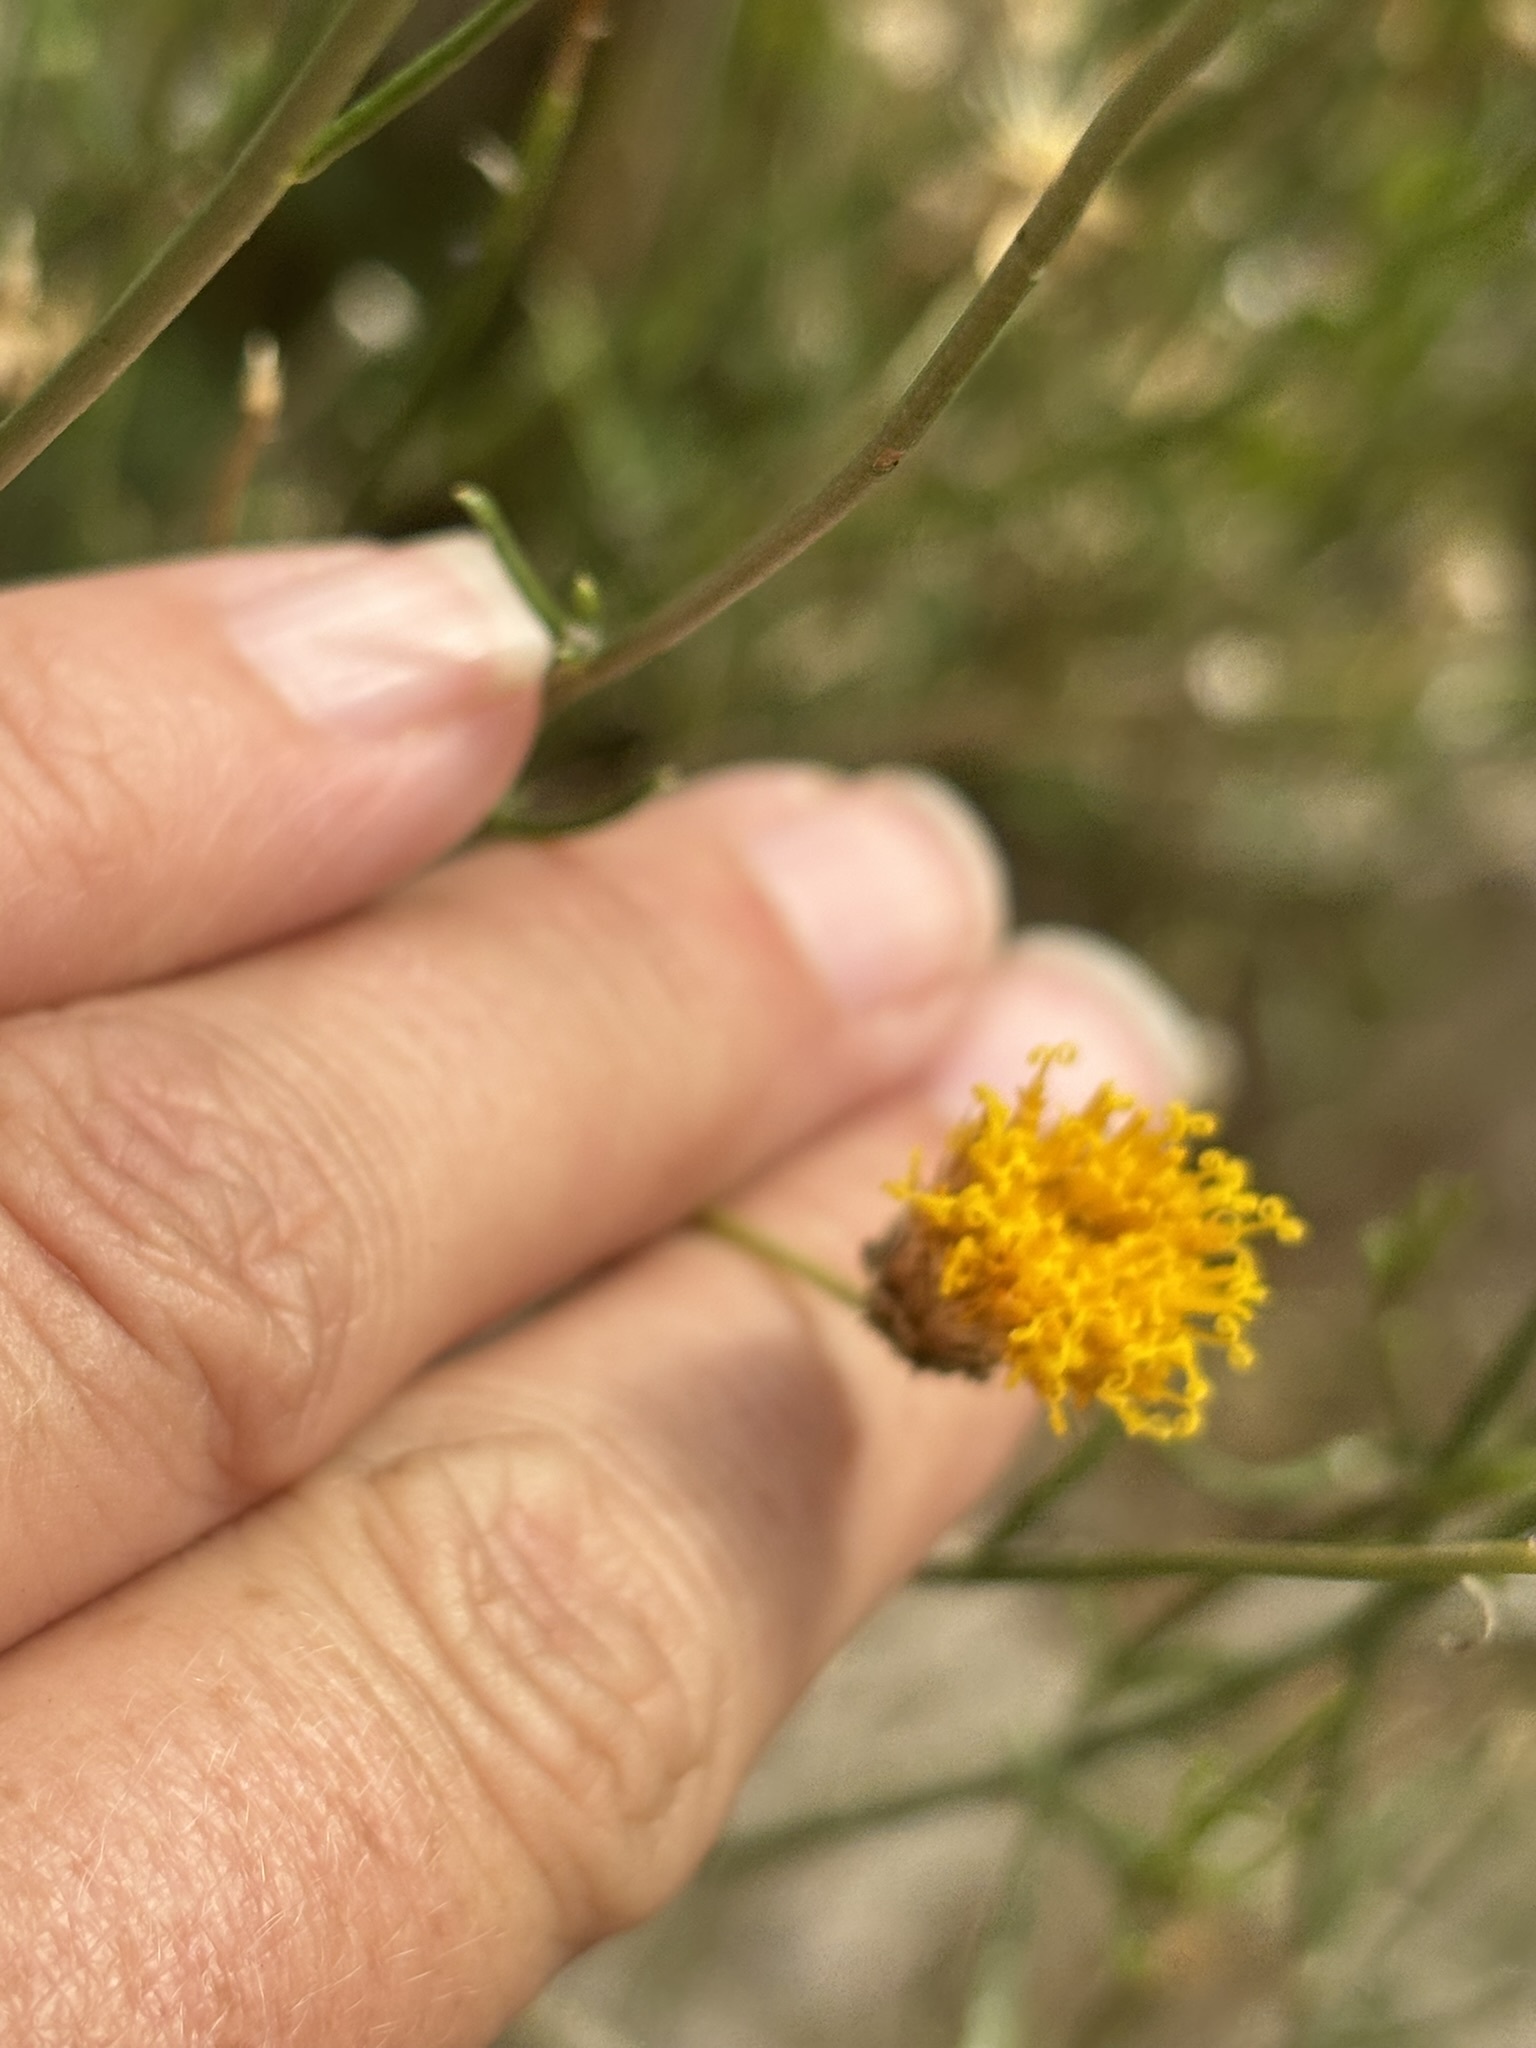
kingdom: Plantae
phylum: Tracheophyta
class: Magnoliopsida
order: Asterales
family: Asteraceae
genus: Bebbia
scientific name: Bebbia juncea
